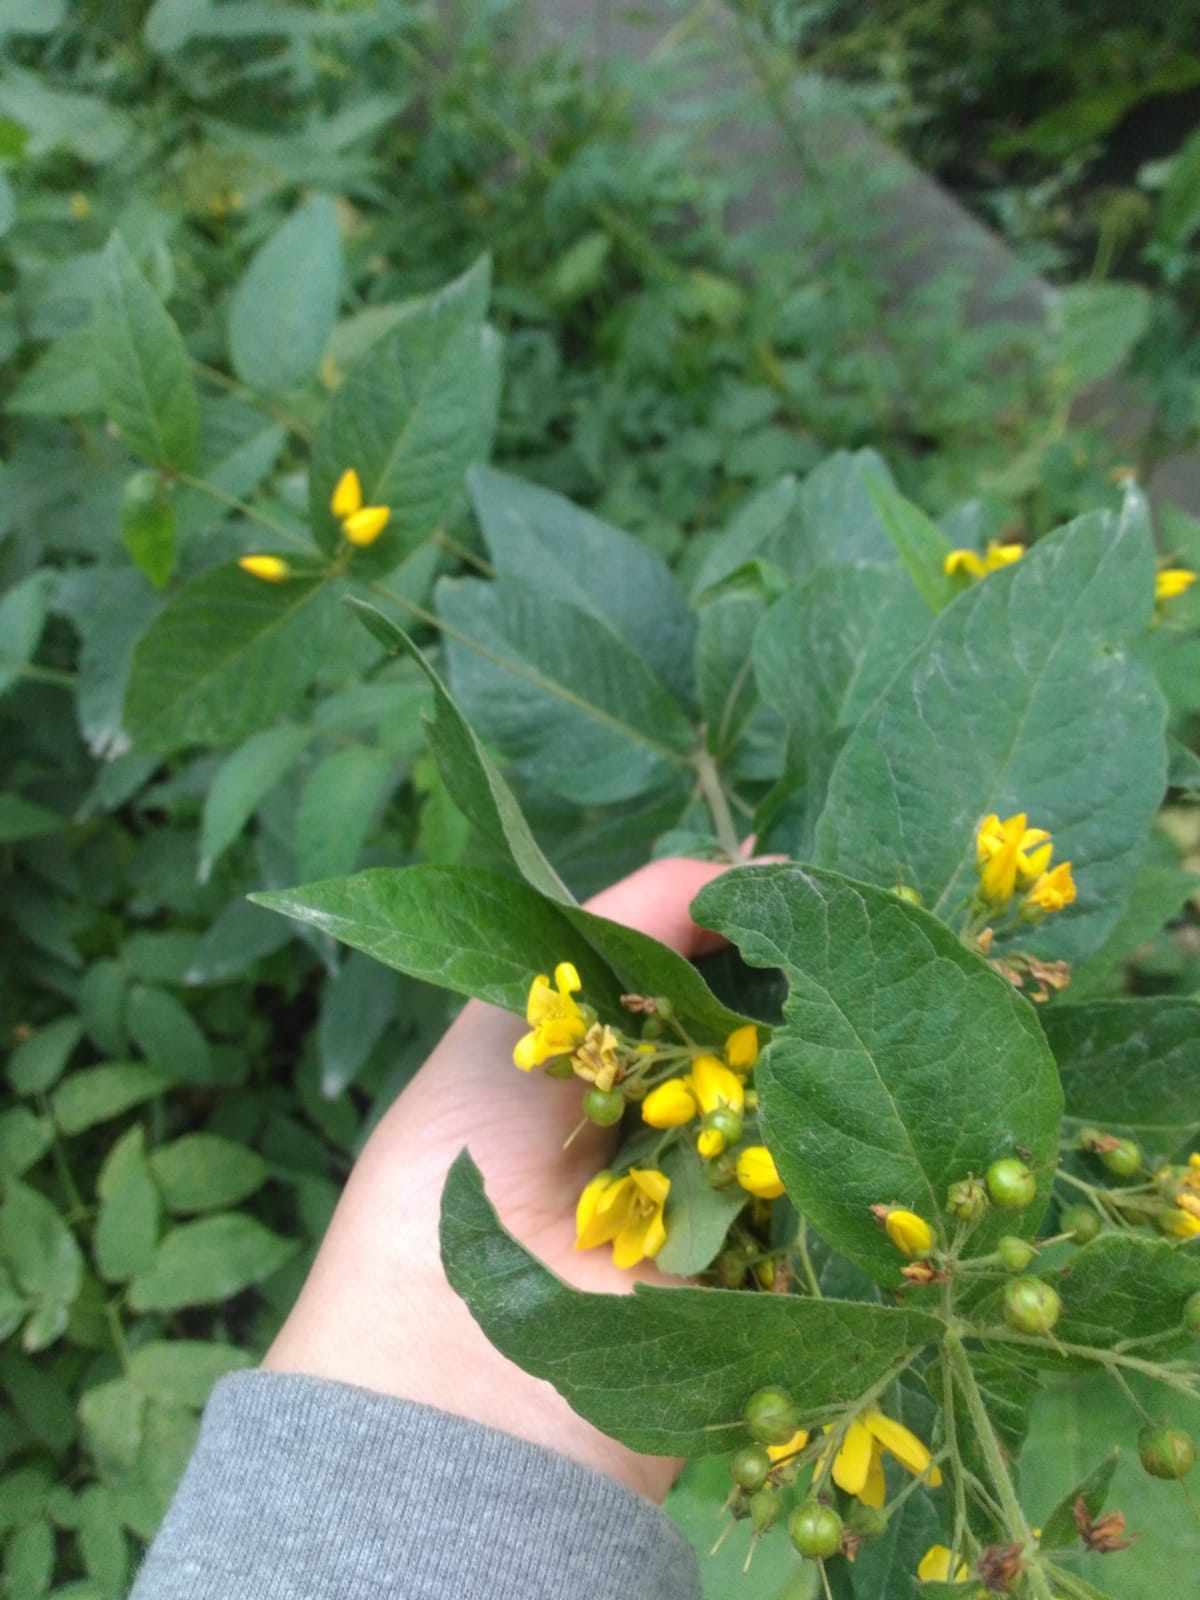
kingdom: Plantae
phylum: Tracheophyta
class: Magnoliopsida
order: Ericales
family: Primulaceae
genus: Lysimachia
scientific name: Lysimachia vulgaris
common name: Yellow loosestrife
